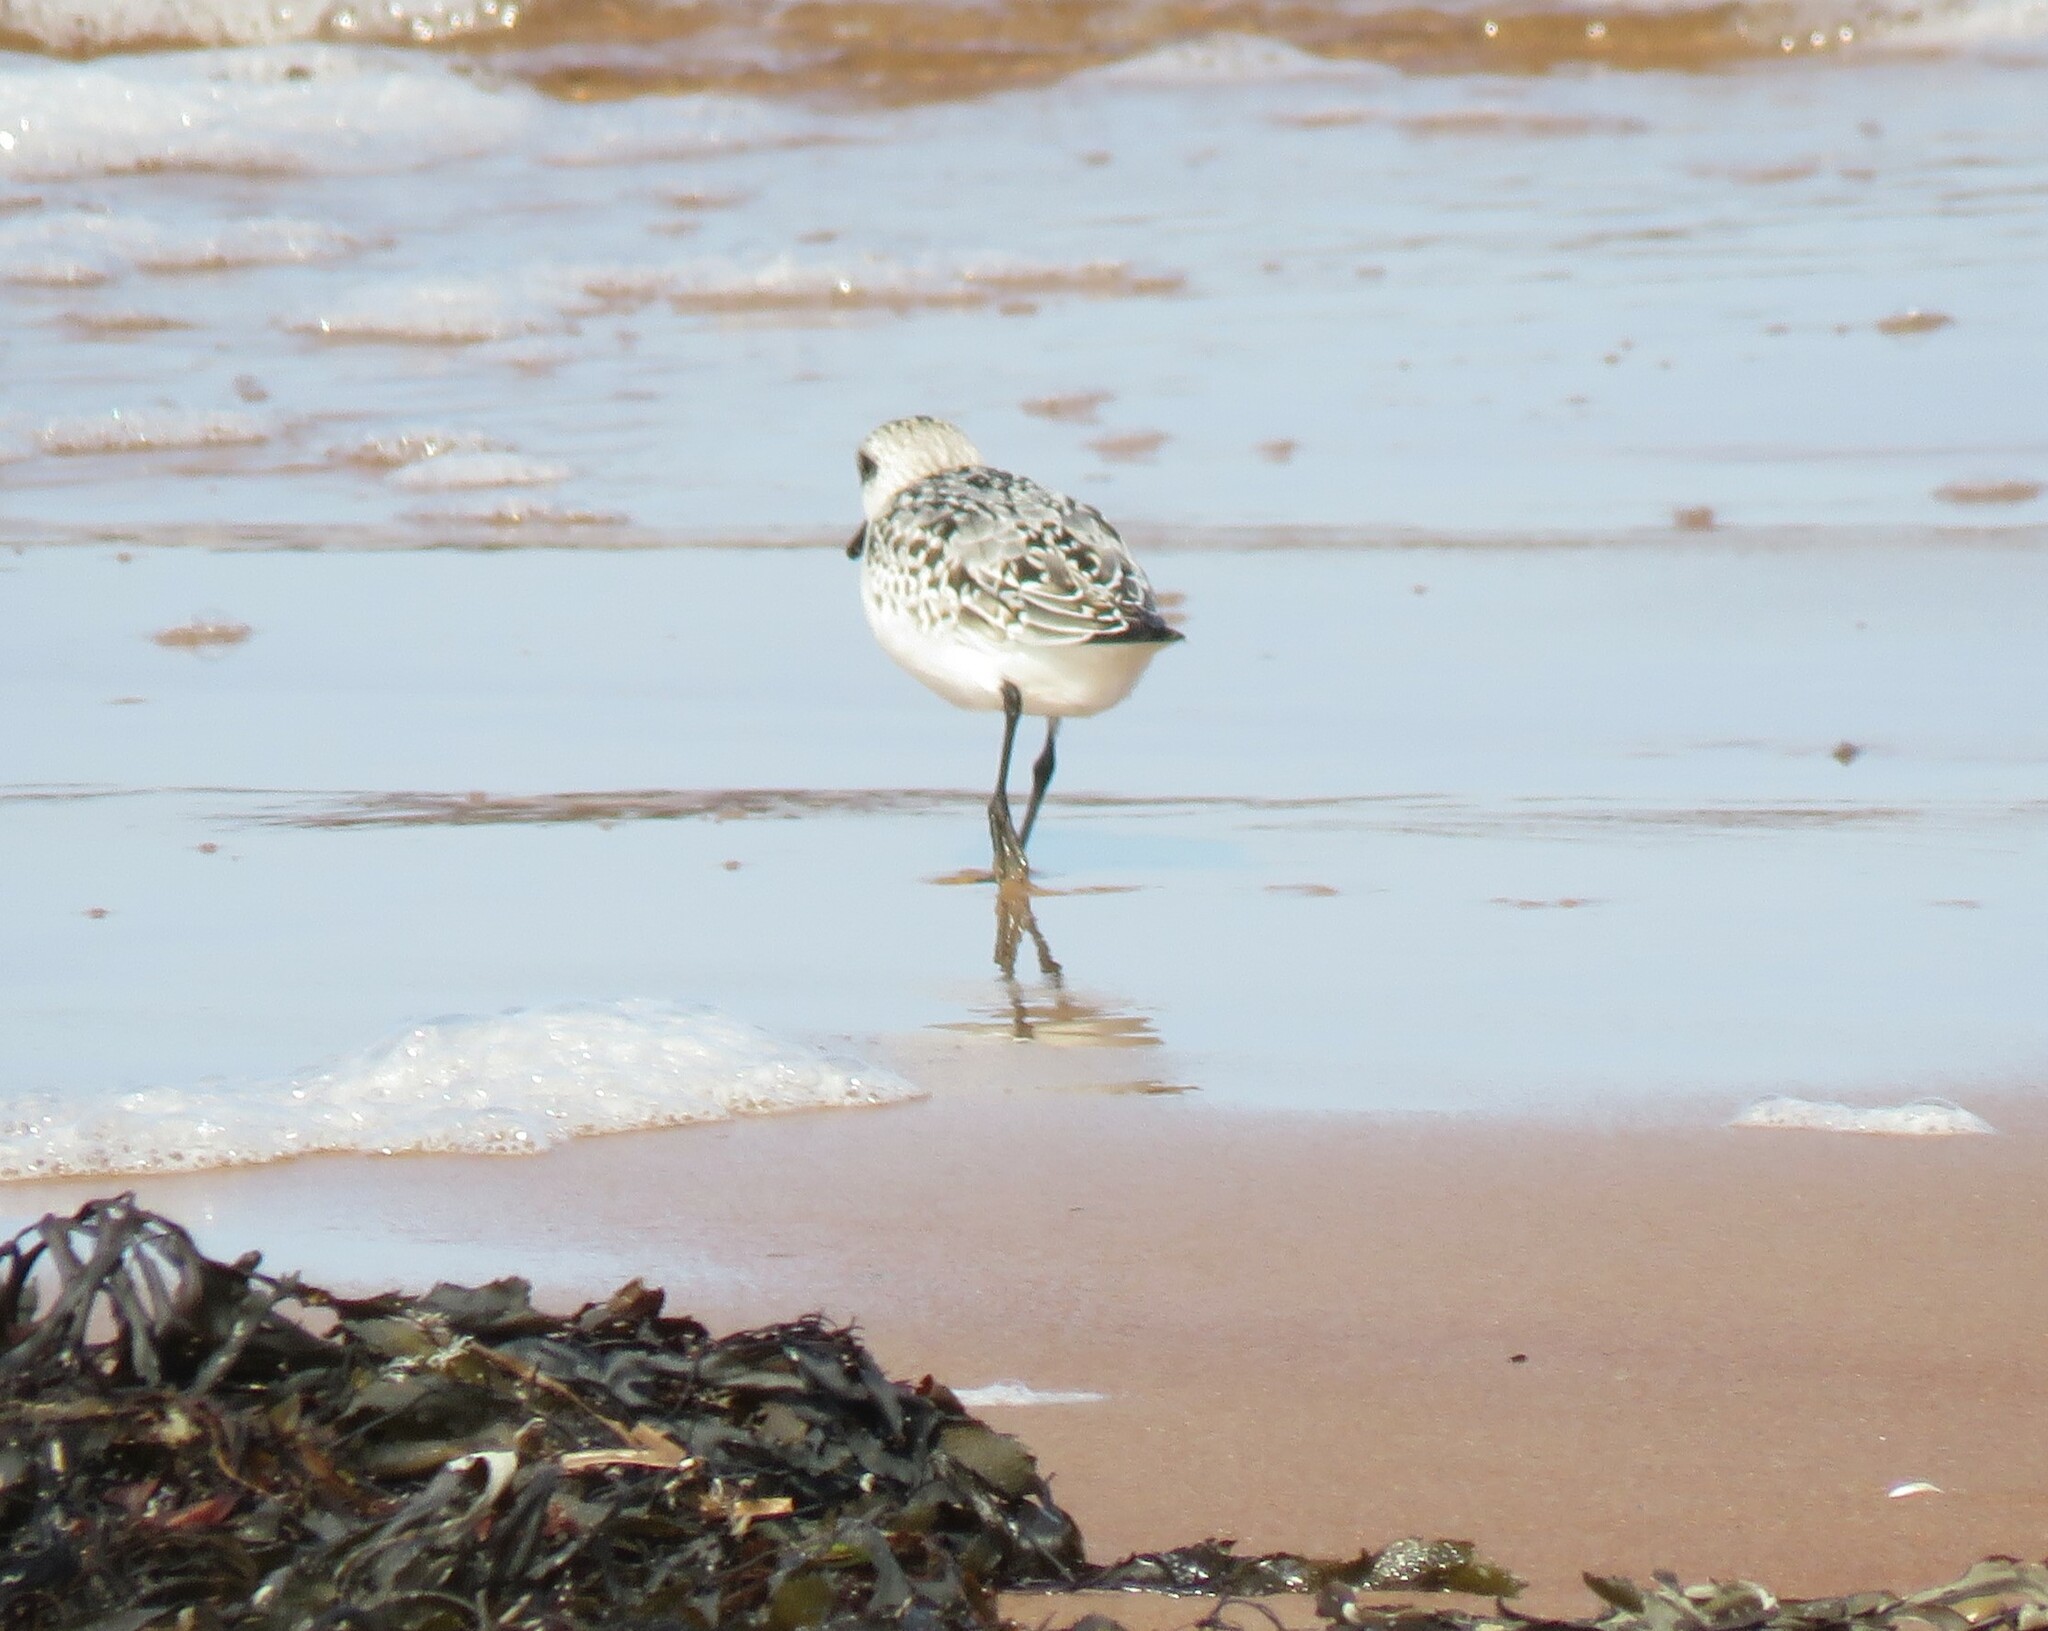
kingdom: Animalia
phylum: Chordata
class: Aves
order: Charadriiformes
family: Scolopacidae
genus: Calidris
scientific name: Calidris alba
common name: Sanderling
